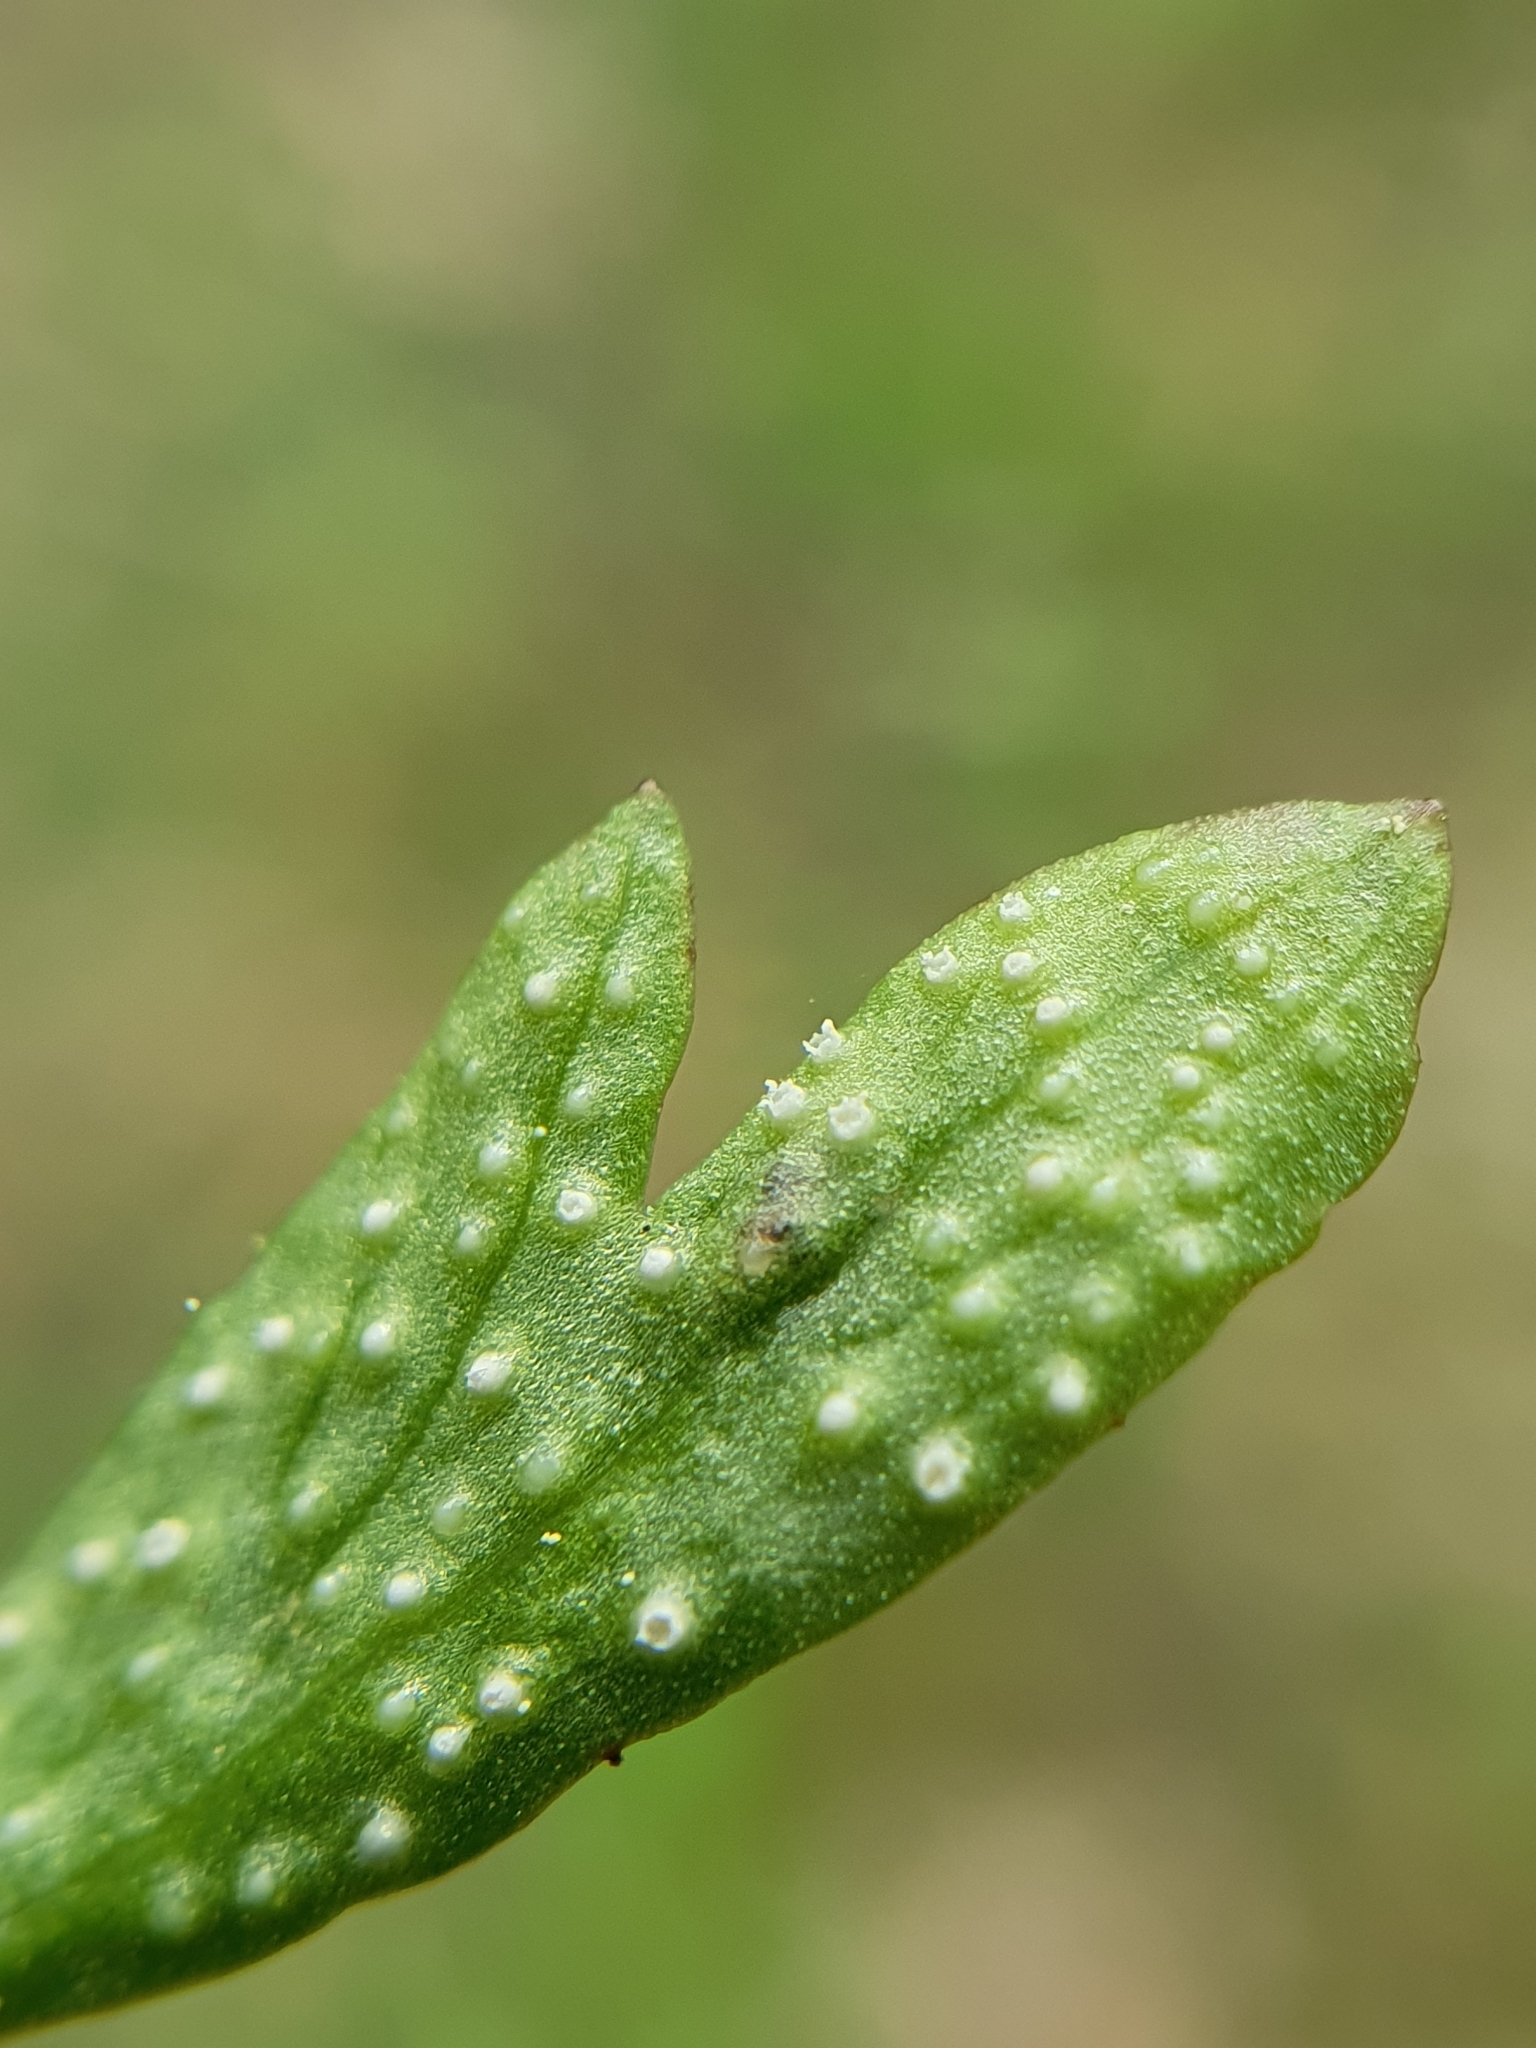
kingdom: Fungi
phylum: Basidiomycota
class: Pucciniomycetes
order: Pucciniales
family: Ochropsoraceae
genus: Ochropsora
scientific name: Ochropsora ariae
